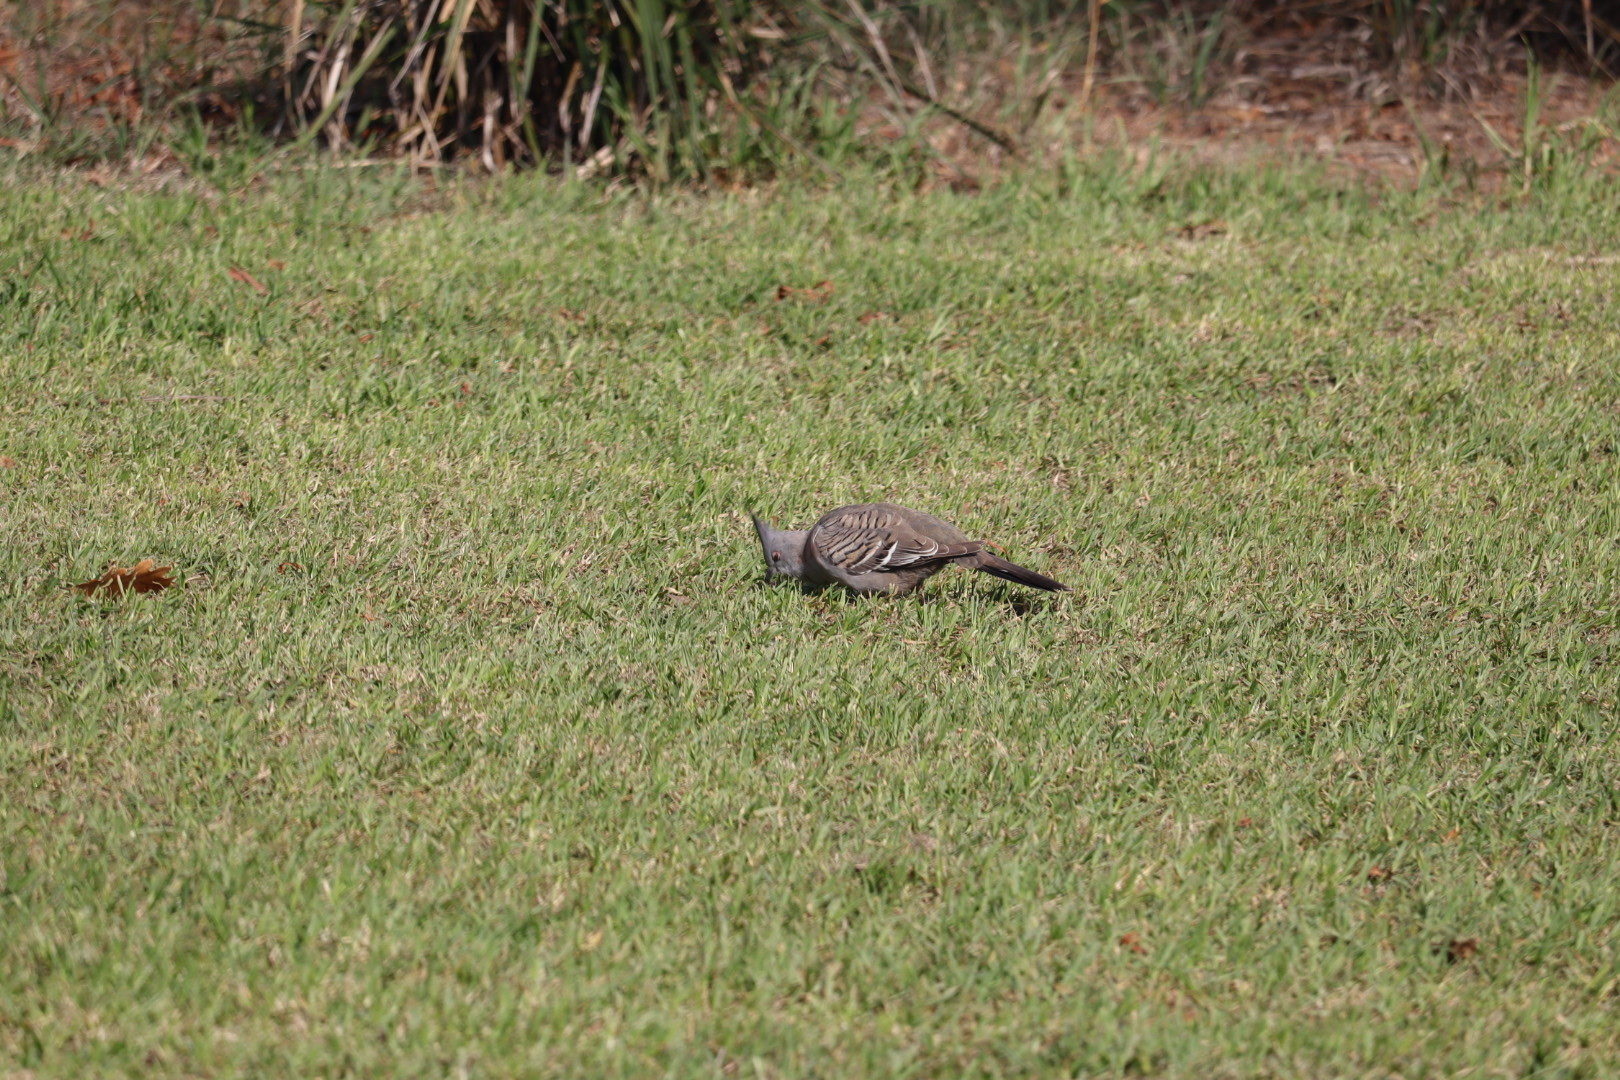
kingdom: Animalia
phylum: Chordata
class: Aves
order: Columbiformes
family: Columbidae
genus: Ocyphaps
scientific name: Ocyphaps lophotes
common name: Crested pigeon
